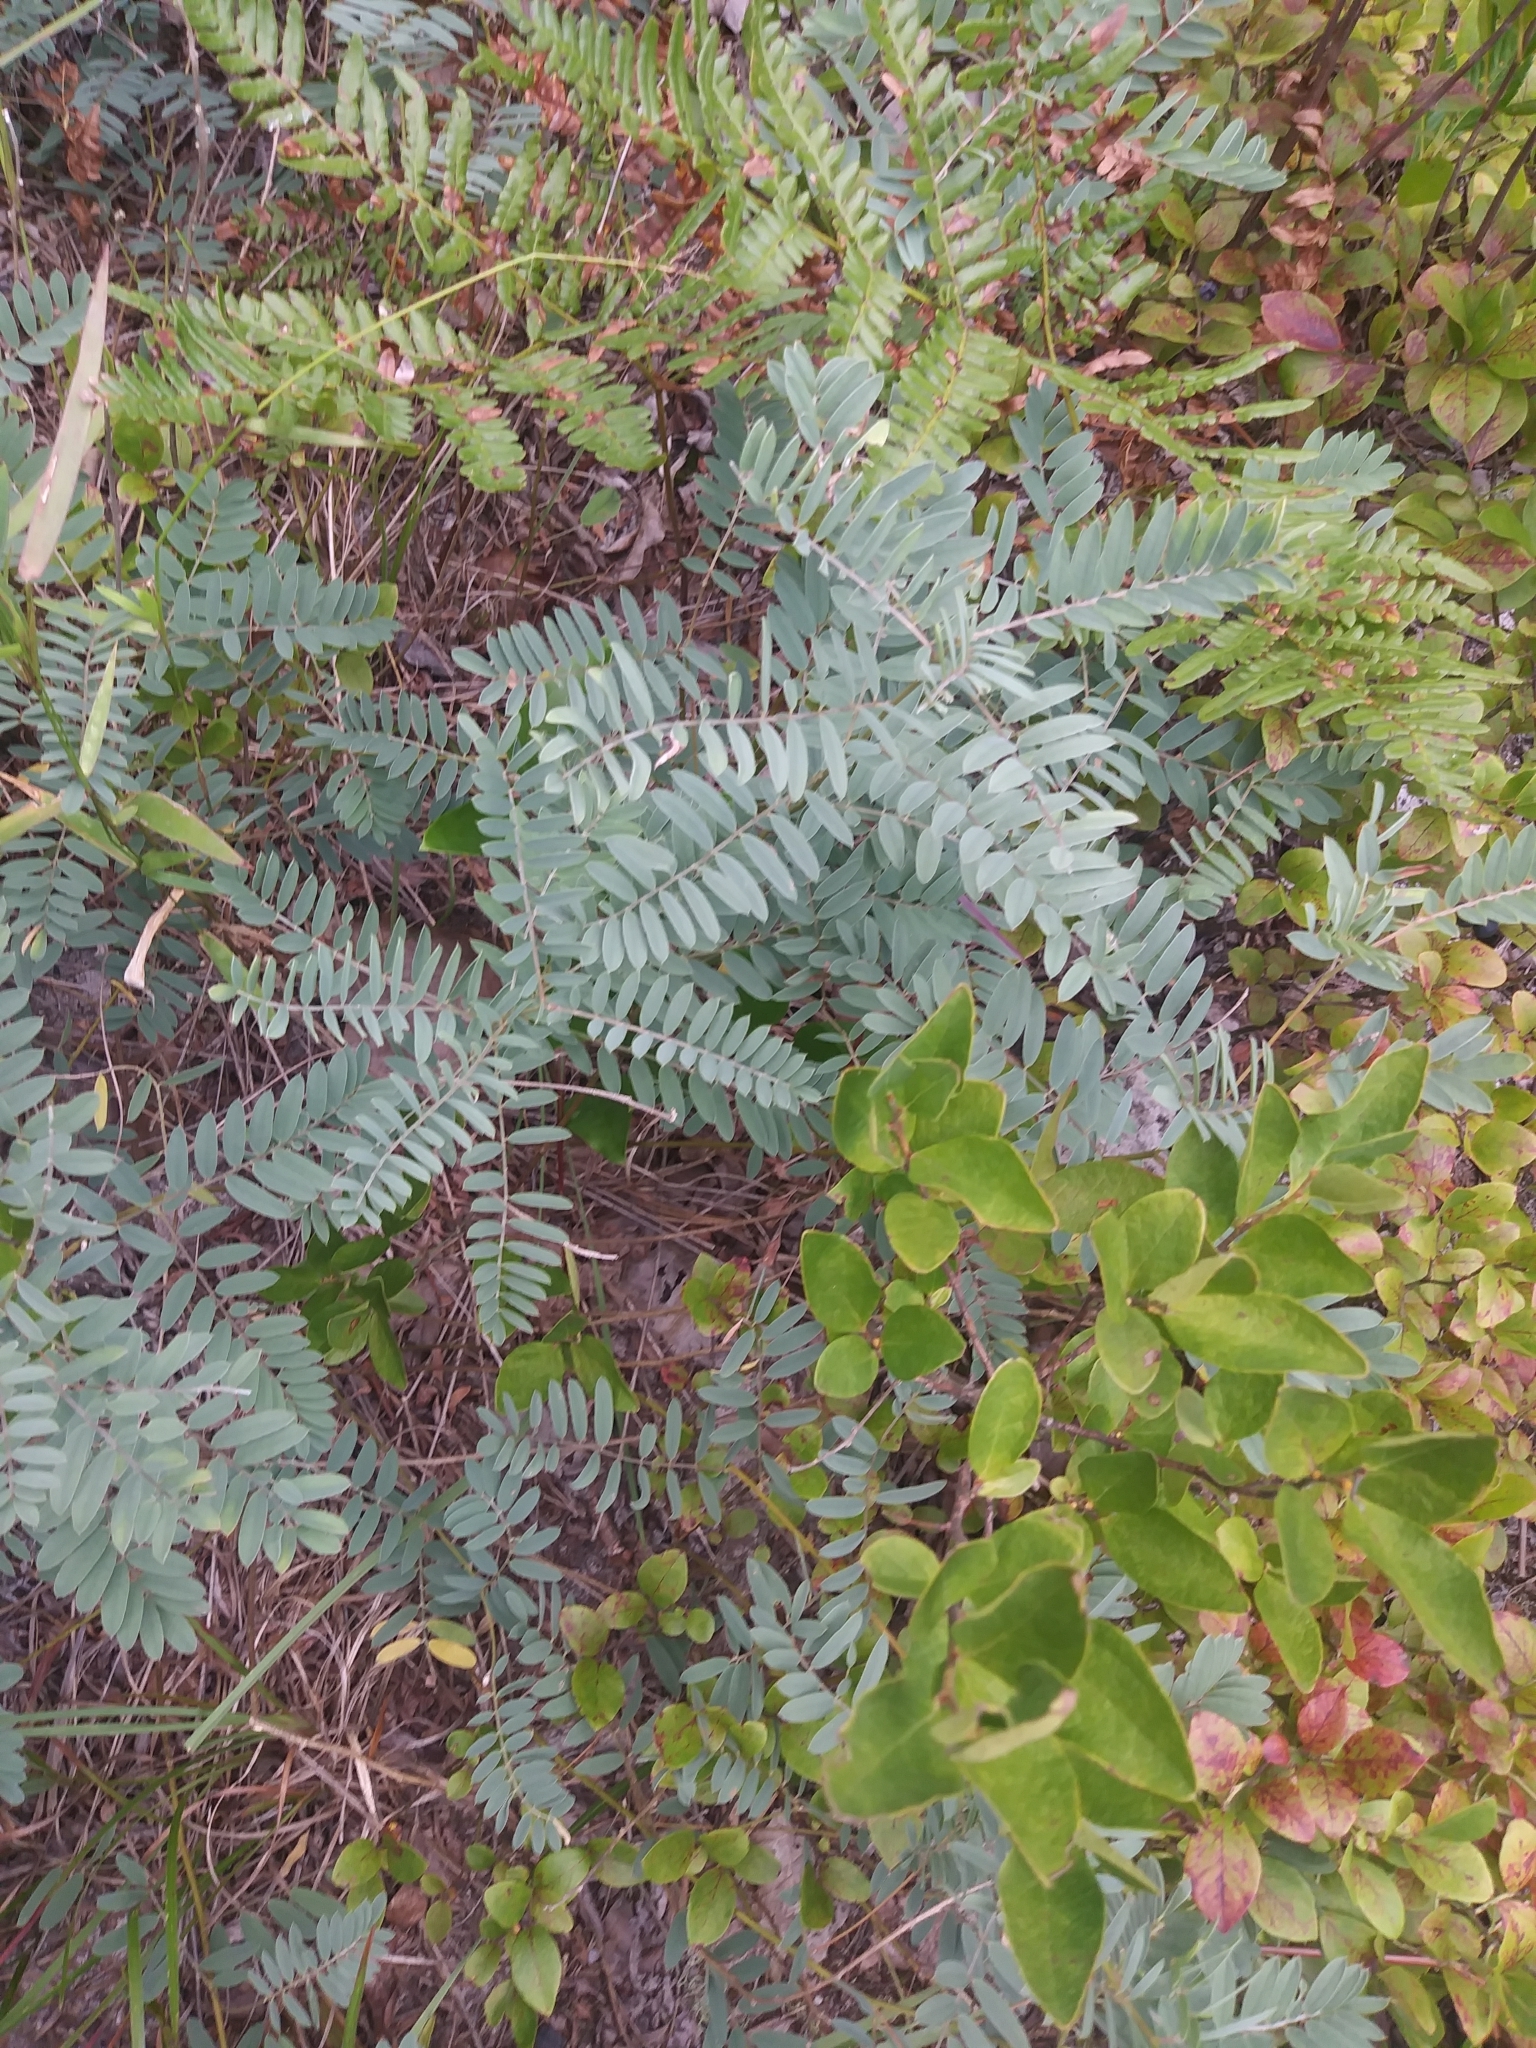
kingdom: Plantae
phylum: Tracheophyta
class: Magnoliopsida
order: Fabales
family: Fabaceae
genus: Tephrosia
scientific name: Tephrosia virginiana
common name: Rabbit-pea
